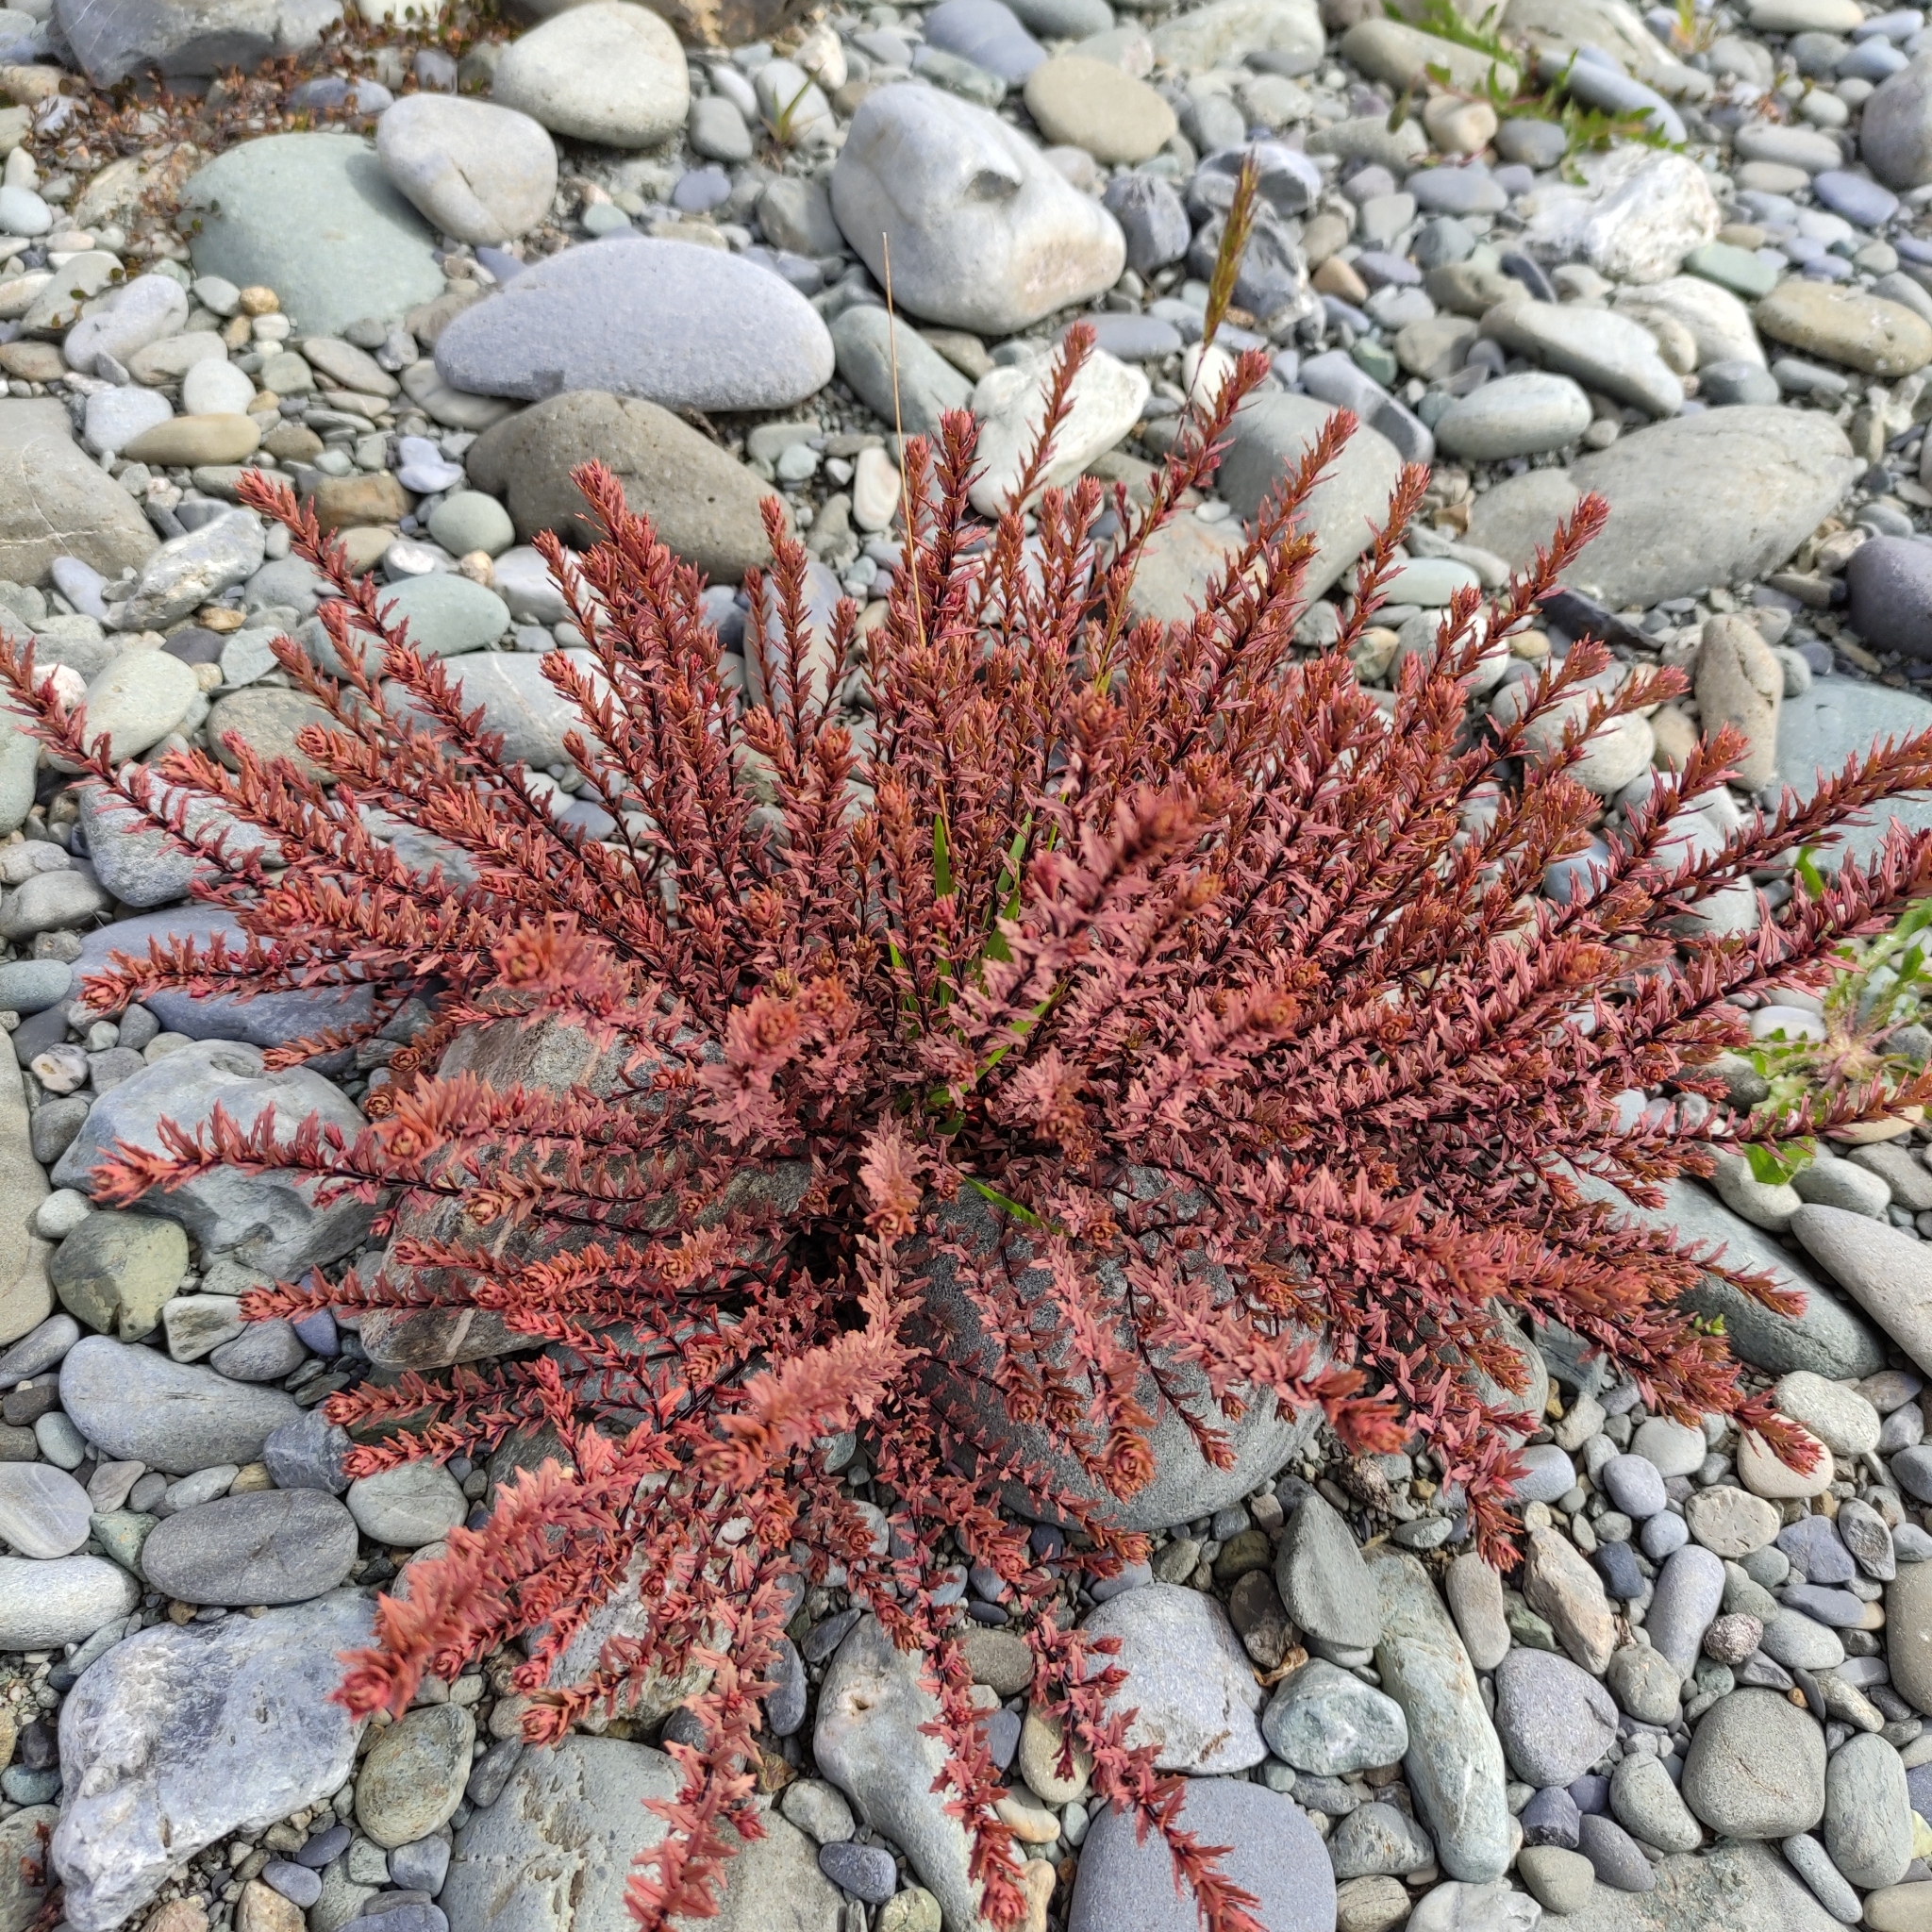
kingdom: Plantae
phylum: Tracheophyta
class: Magnoliopsida
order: Myrtales
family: Onagraceae
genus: Epilobium
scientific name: Epilobium melanocaulon
